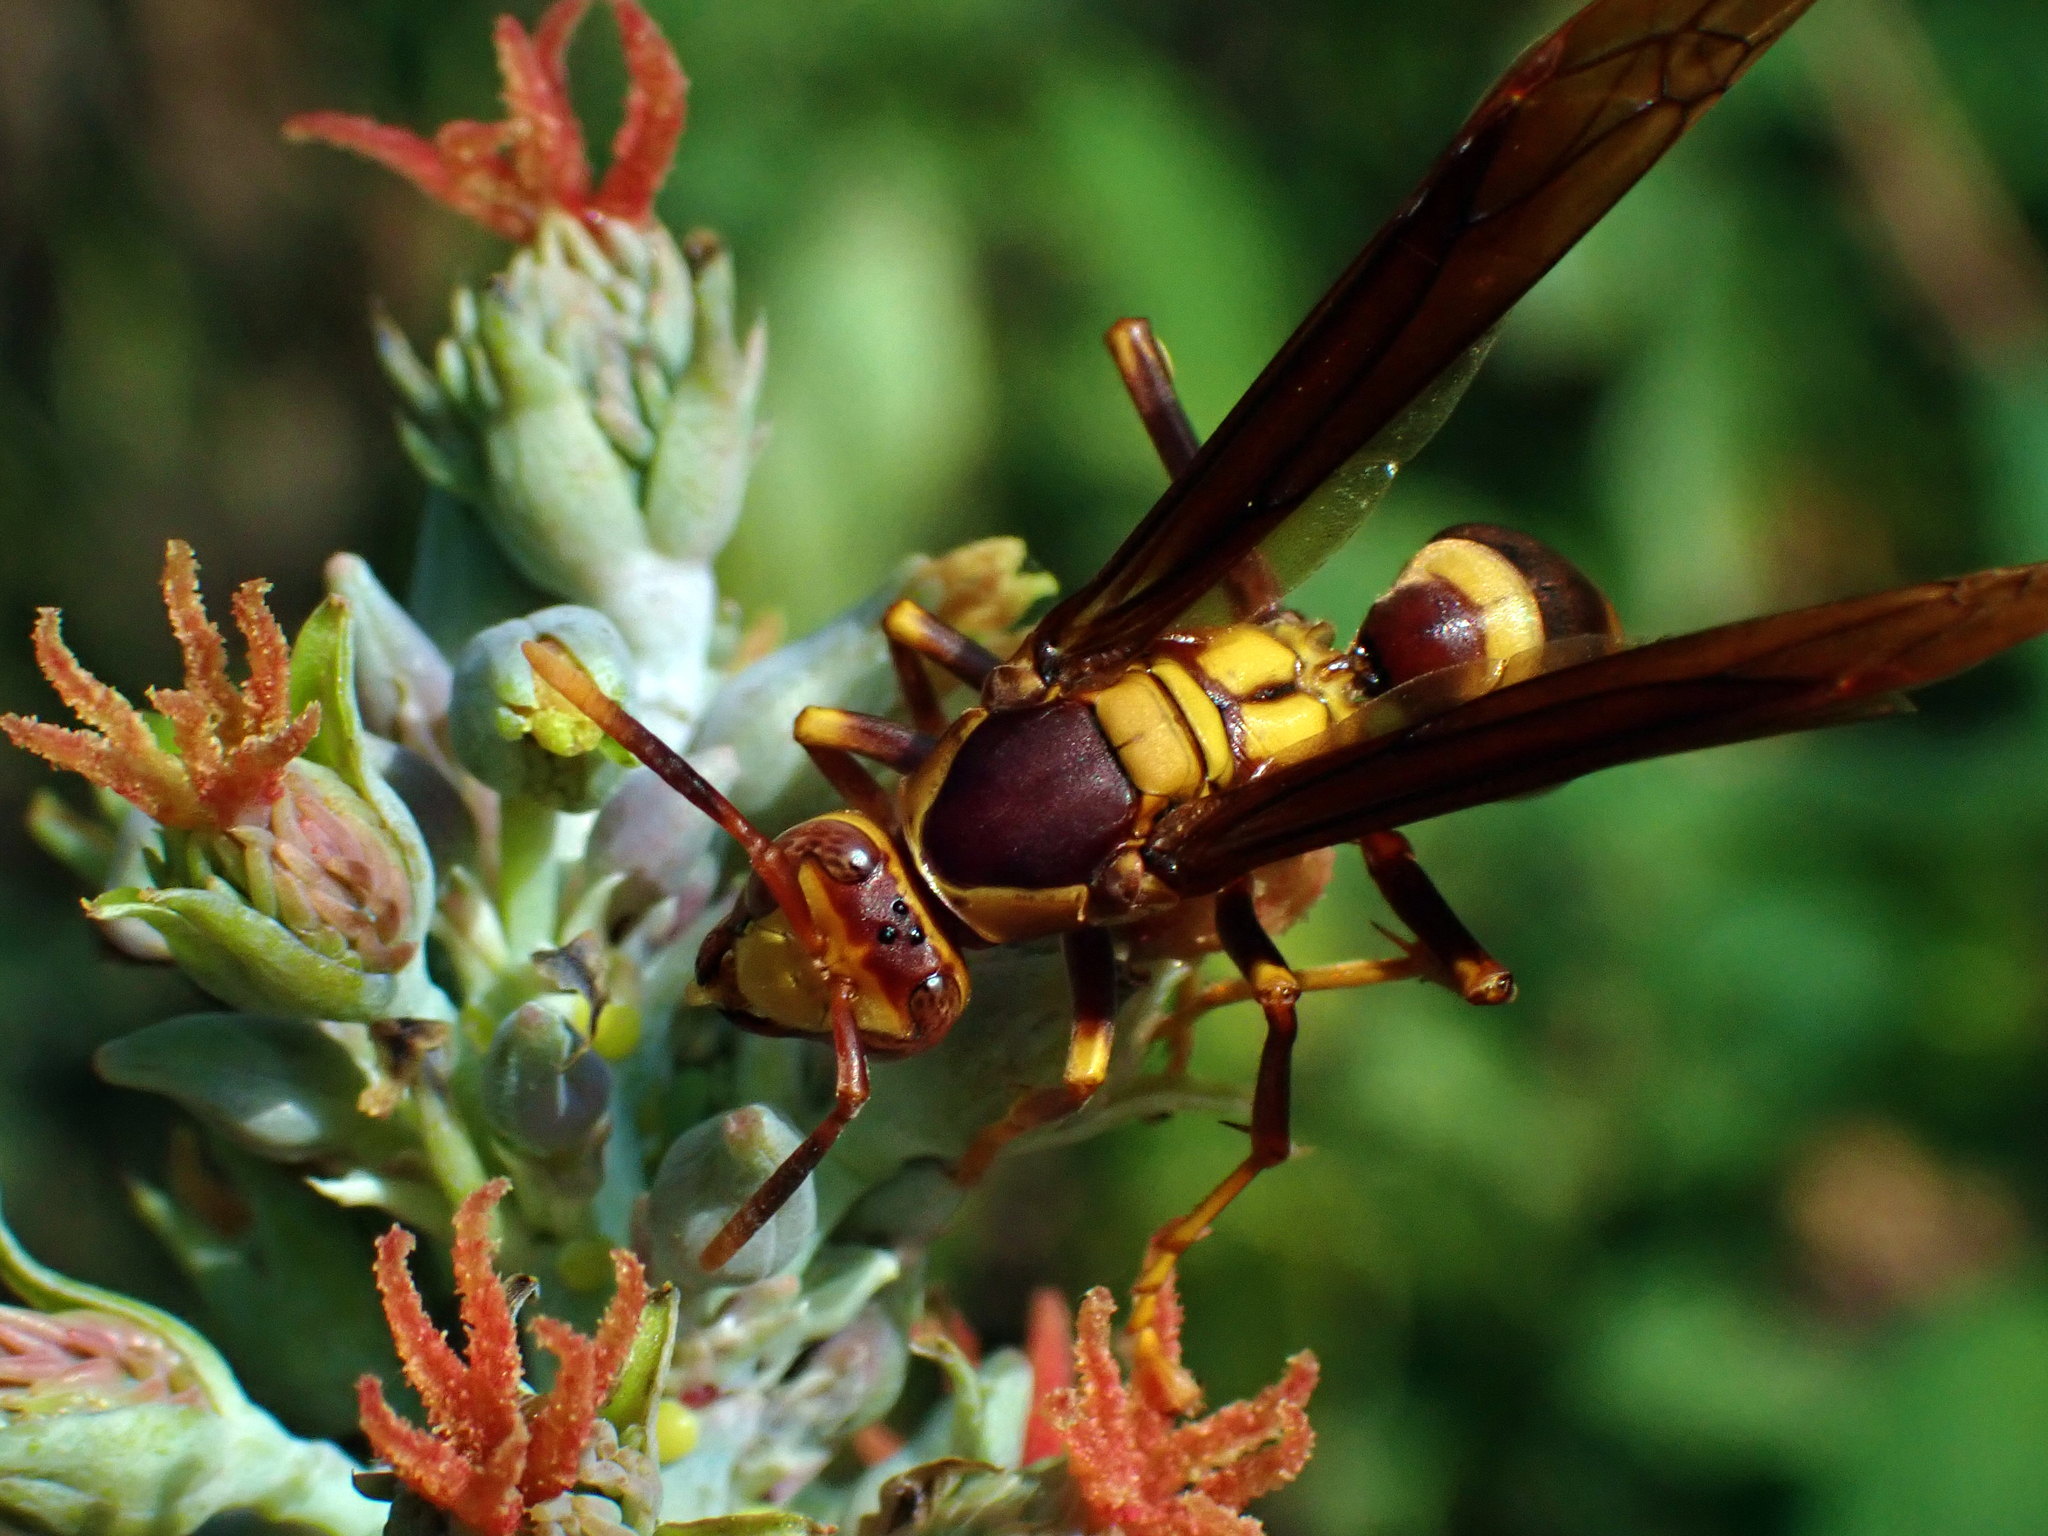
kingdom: Animalia
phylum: Arthropoda
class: Insecta
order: Hymenoptera
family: Eumenidae
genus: Polistes
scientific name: Polistes major
